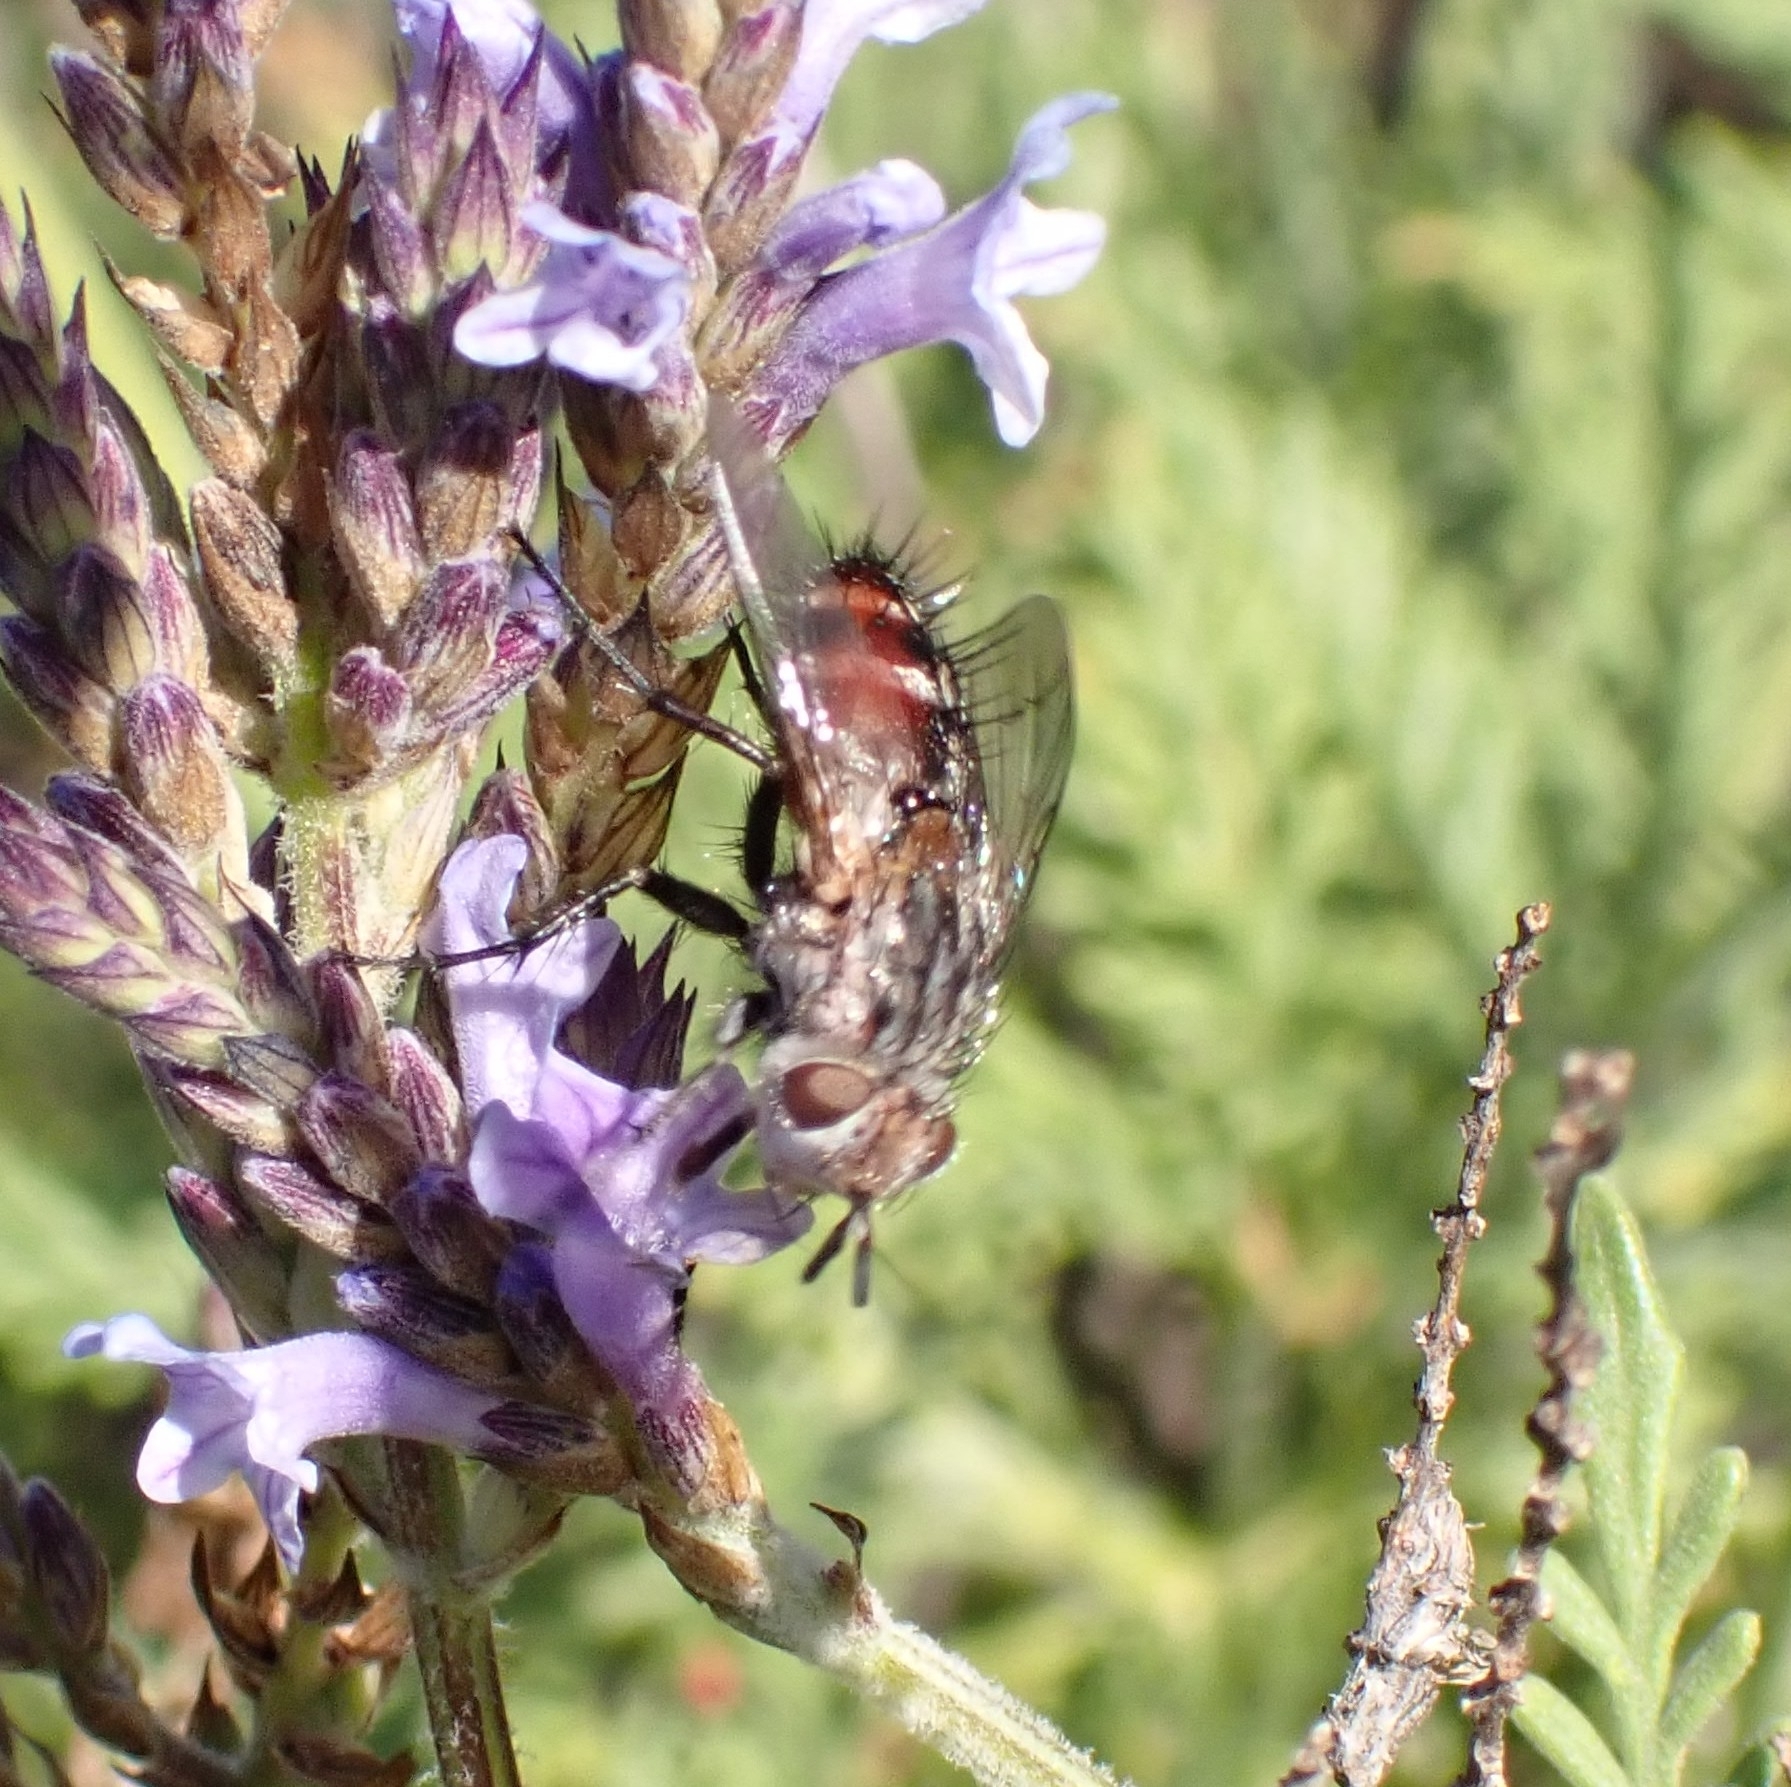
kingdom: Animalia
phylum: Arthropoda
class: Insecta
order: Diptera
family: Tachinidae
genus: Linnaemya
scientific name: Linnaemya soror
